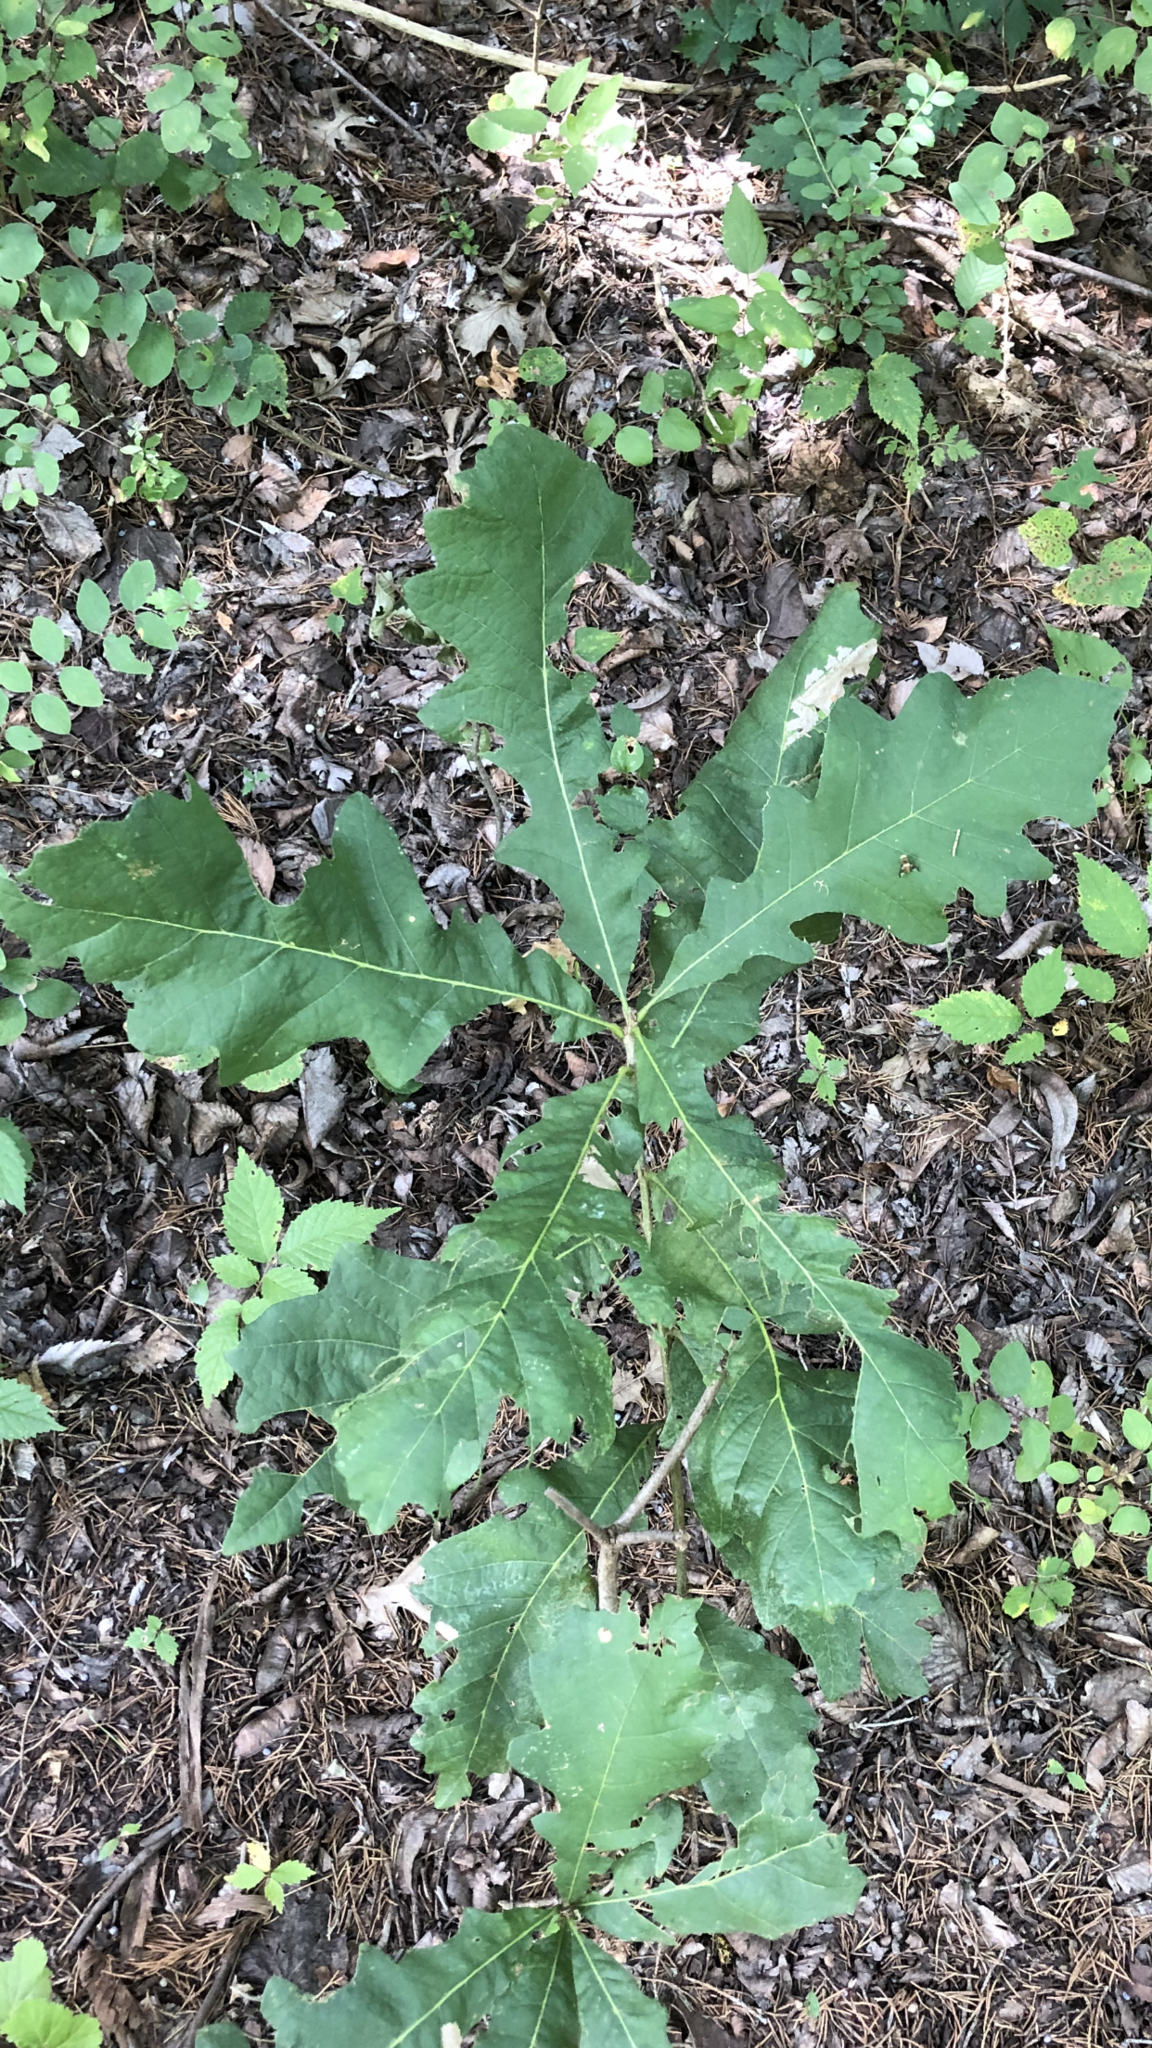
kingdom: Plantae
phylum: Tracheophyta
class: Magnoliopsida
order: Fagales
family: Fagaceae
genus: Quercus
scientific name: Quercus macrocarpa
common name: Bur oak
